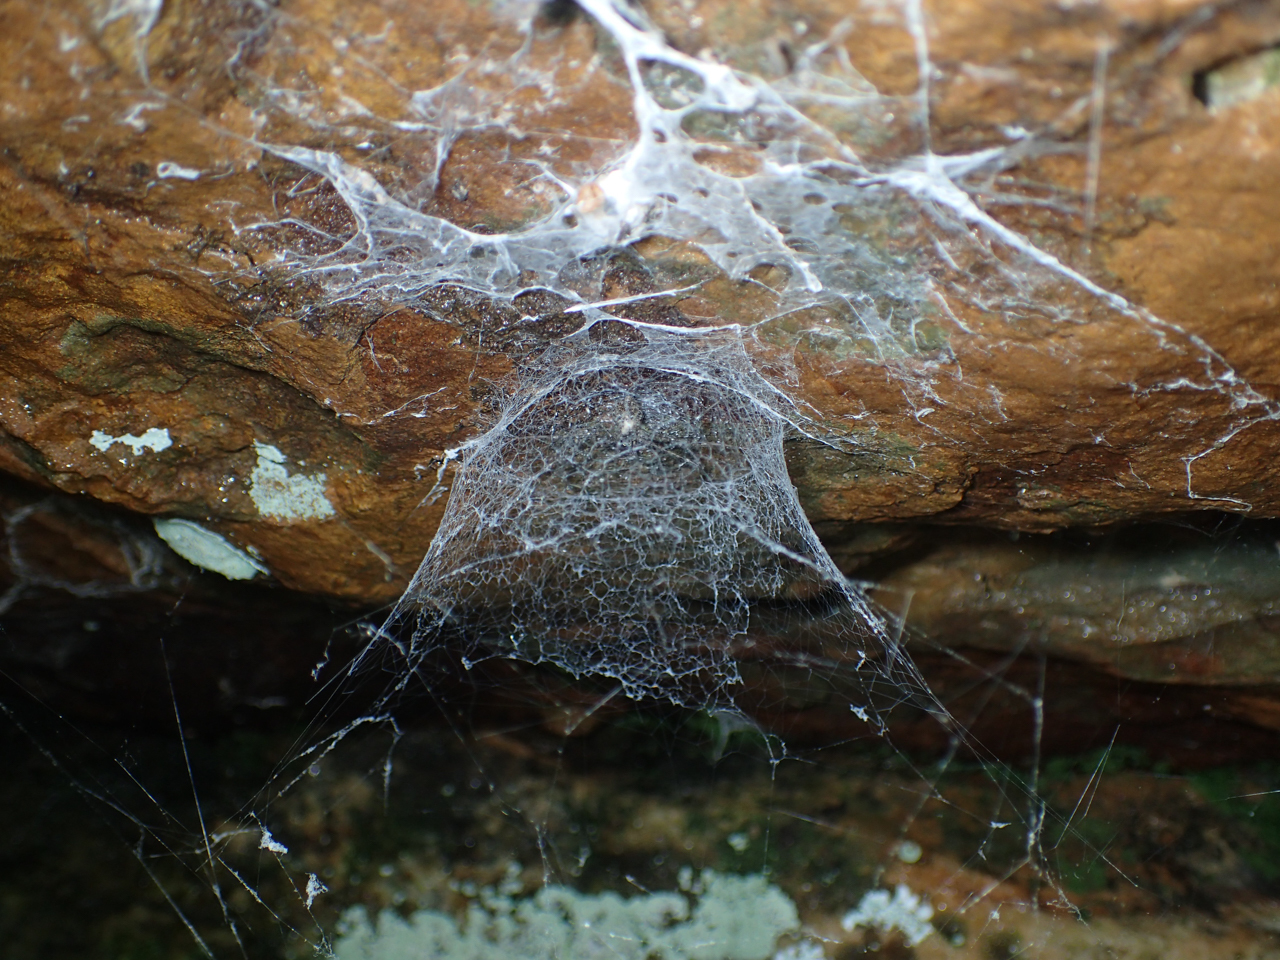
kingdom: Animalia
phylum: Arthropoda
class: Arachnida
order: Araneae
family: Hypochilidae
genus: Hypochilus
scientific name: Hypochilus thorelli
